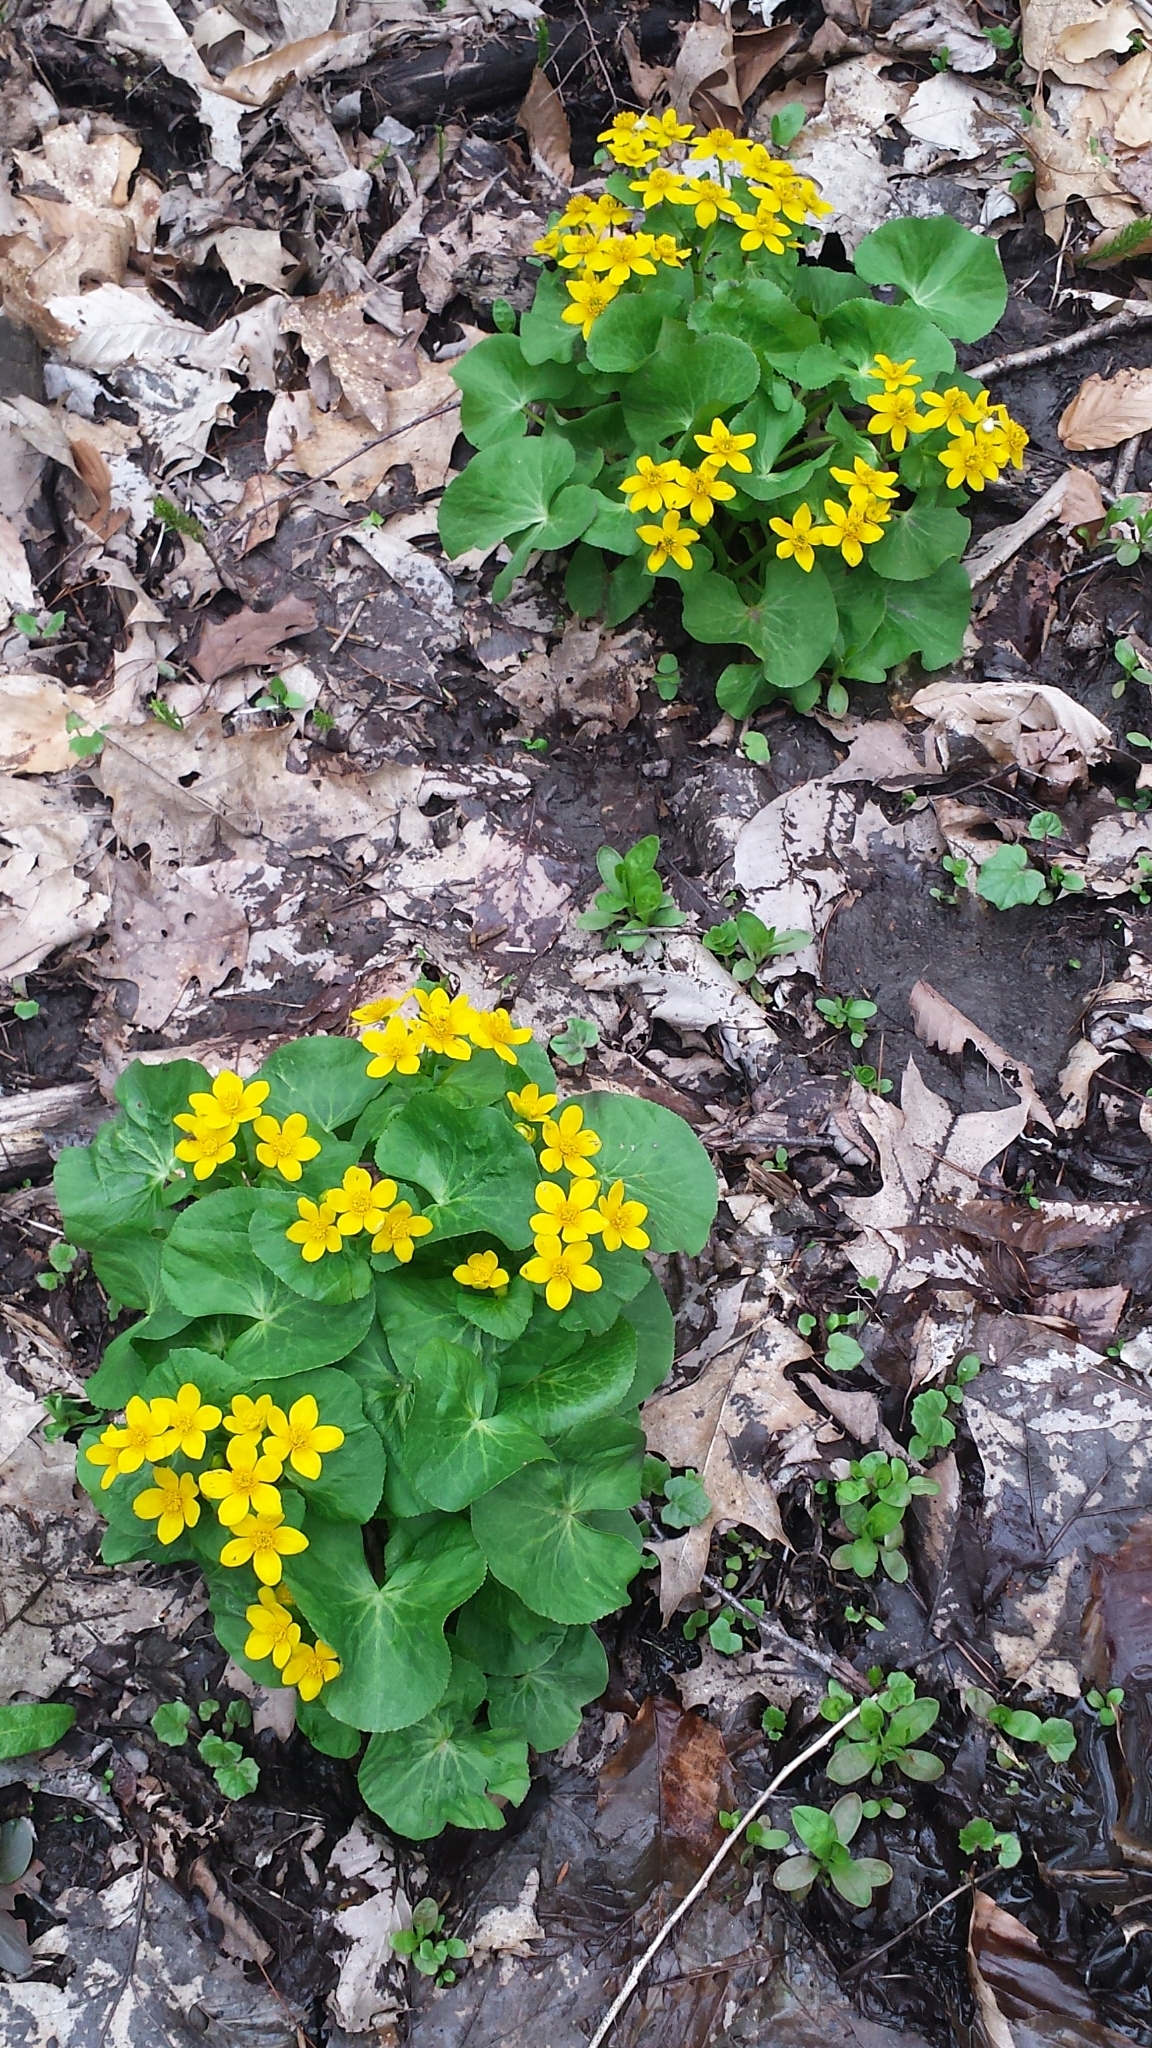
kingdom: Plantae
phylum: Tracheophyta
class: Magnoliopsida
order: Ranunculales
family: Ranunculaceae
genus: Caltha
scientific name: Caltha palustris
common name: Marsh marigold
